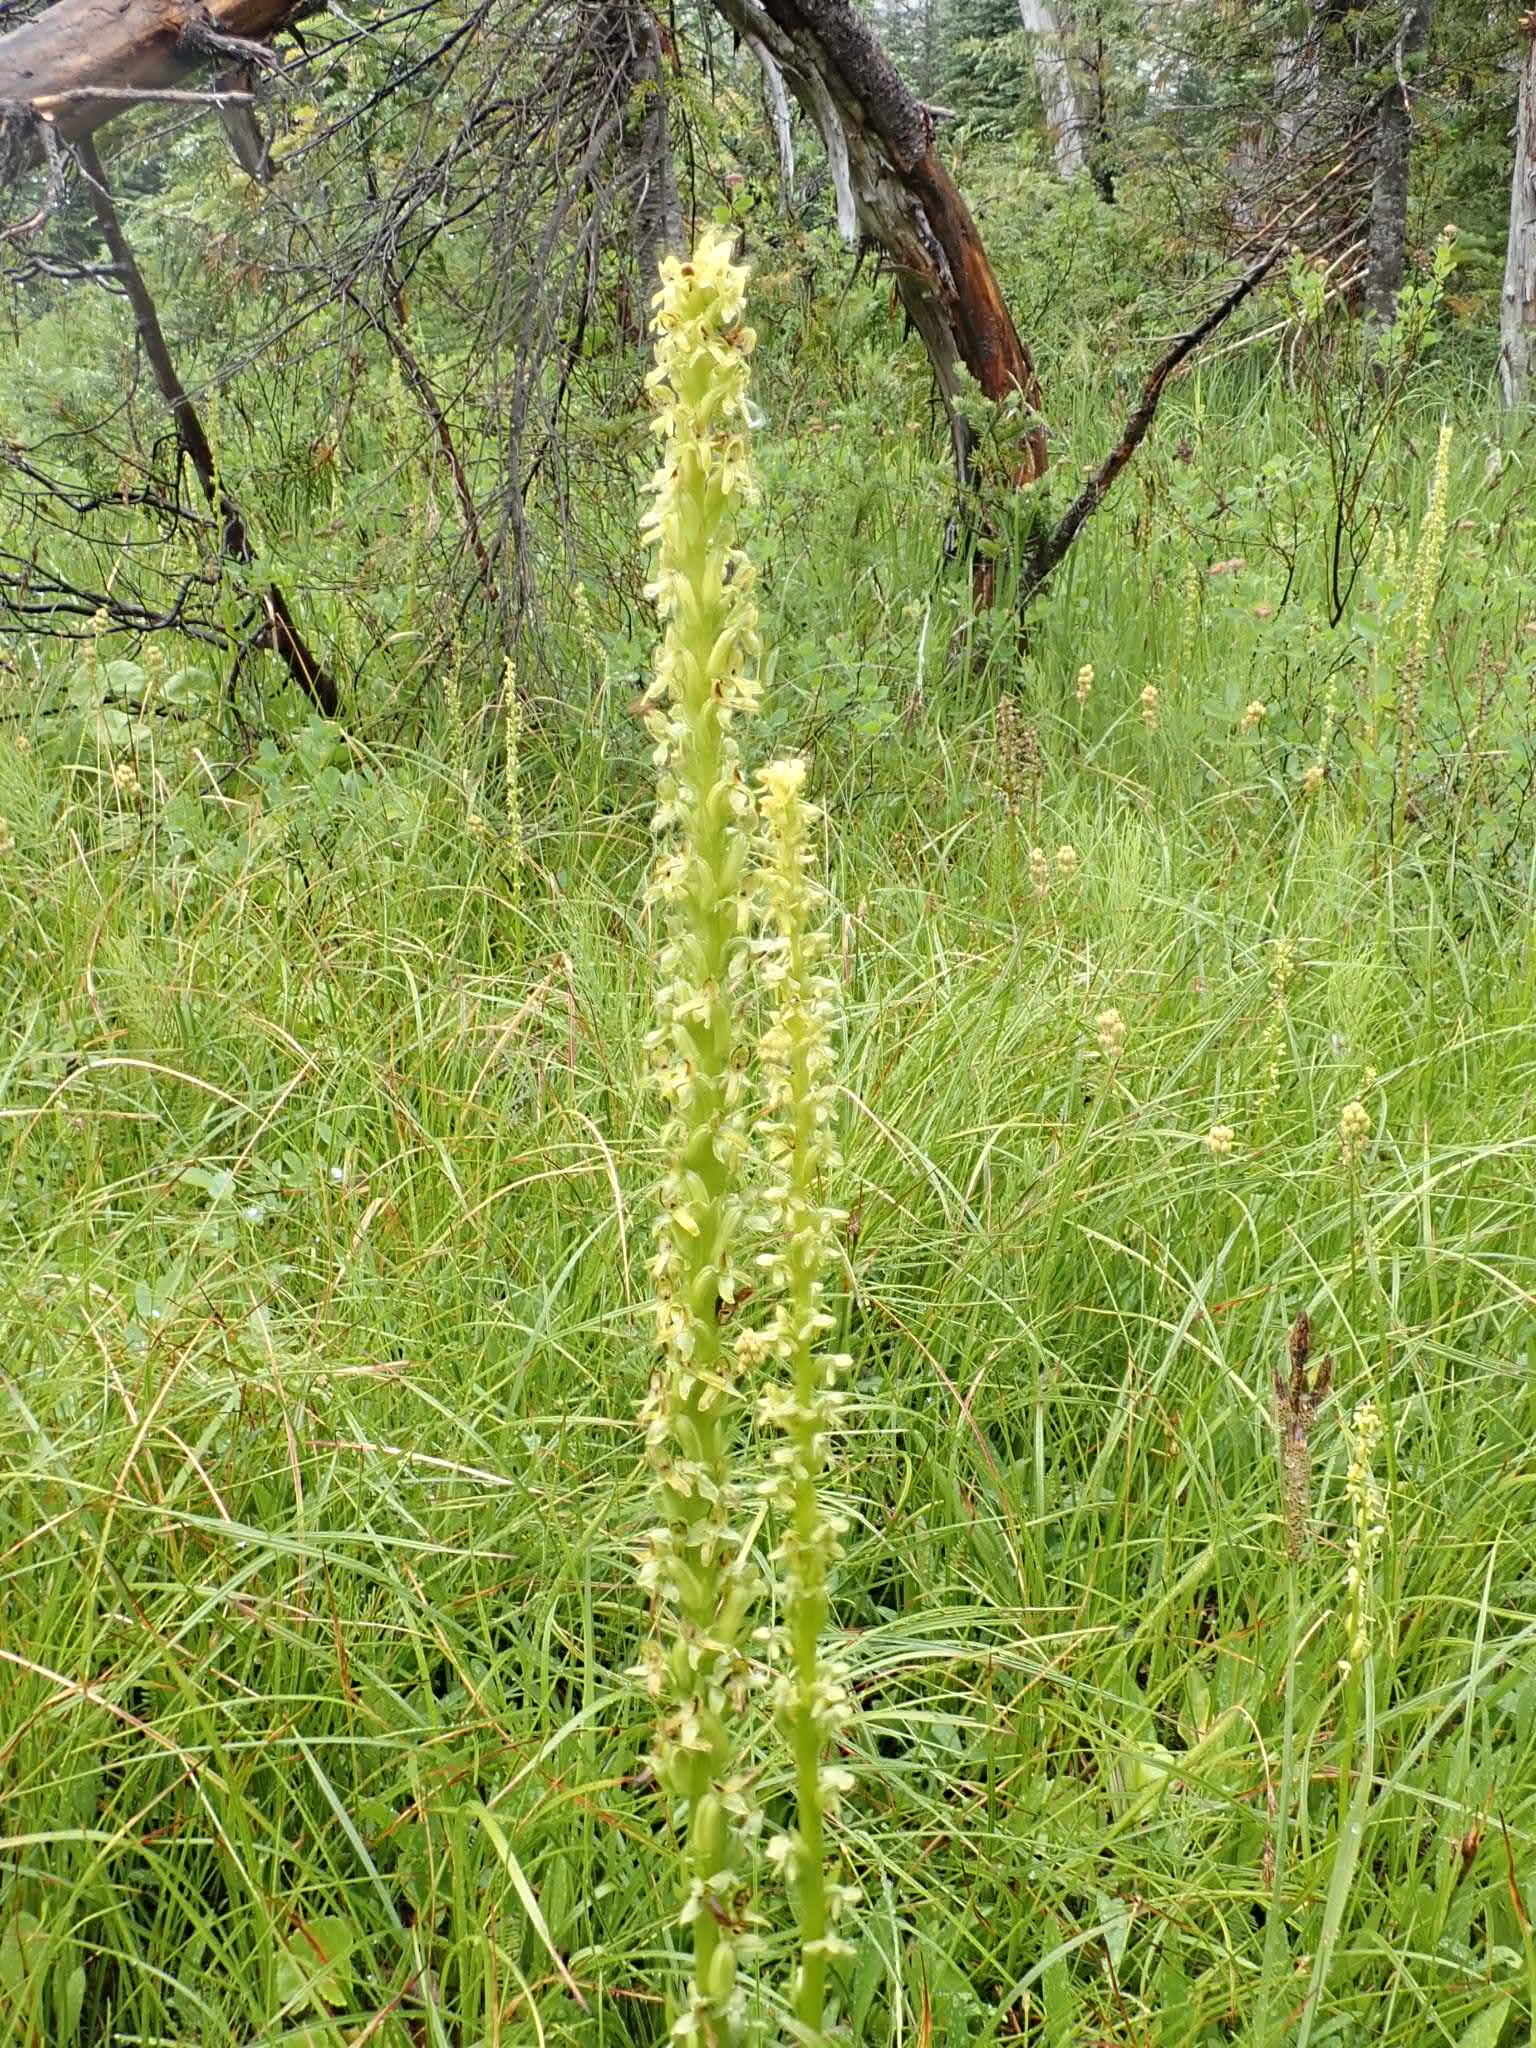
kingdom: Plantae
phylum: Tracheophyta
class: Liliopsida
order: Asparagales
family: Orchidaceae
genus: Platanthera
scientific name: Platanthera stricta
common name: Slender bog orchid
